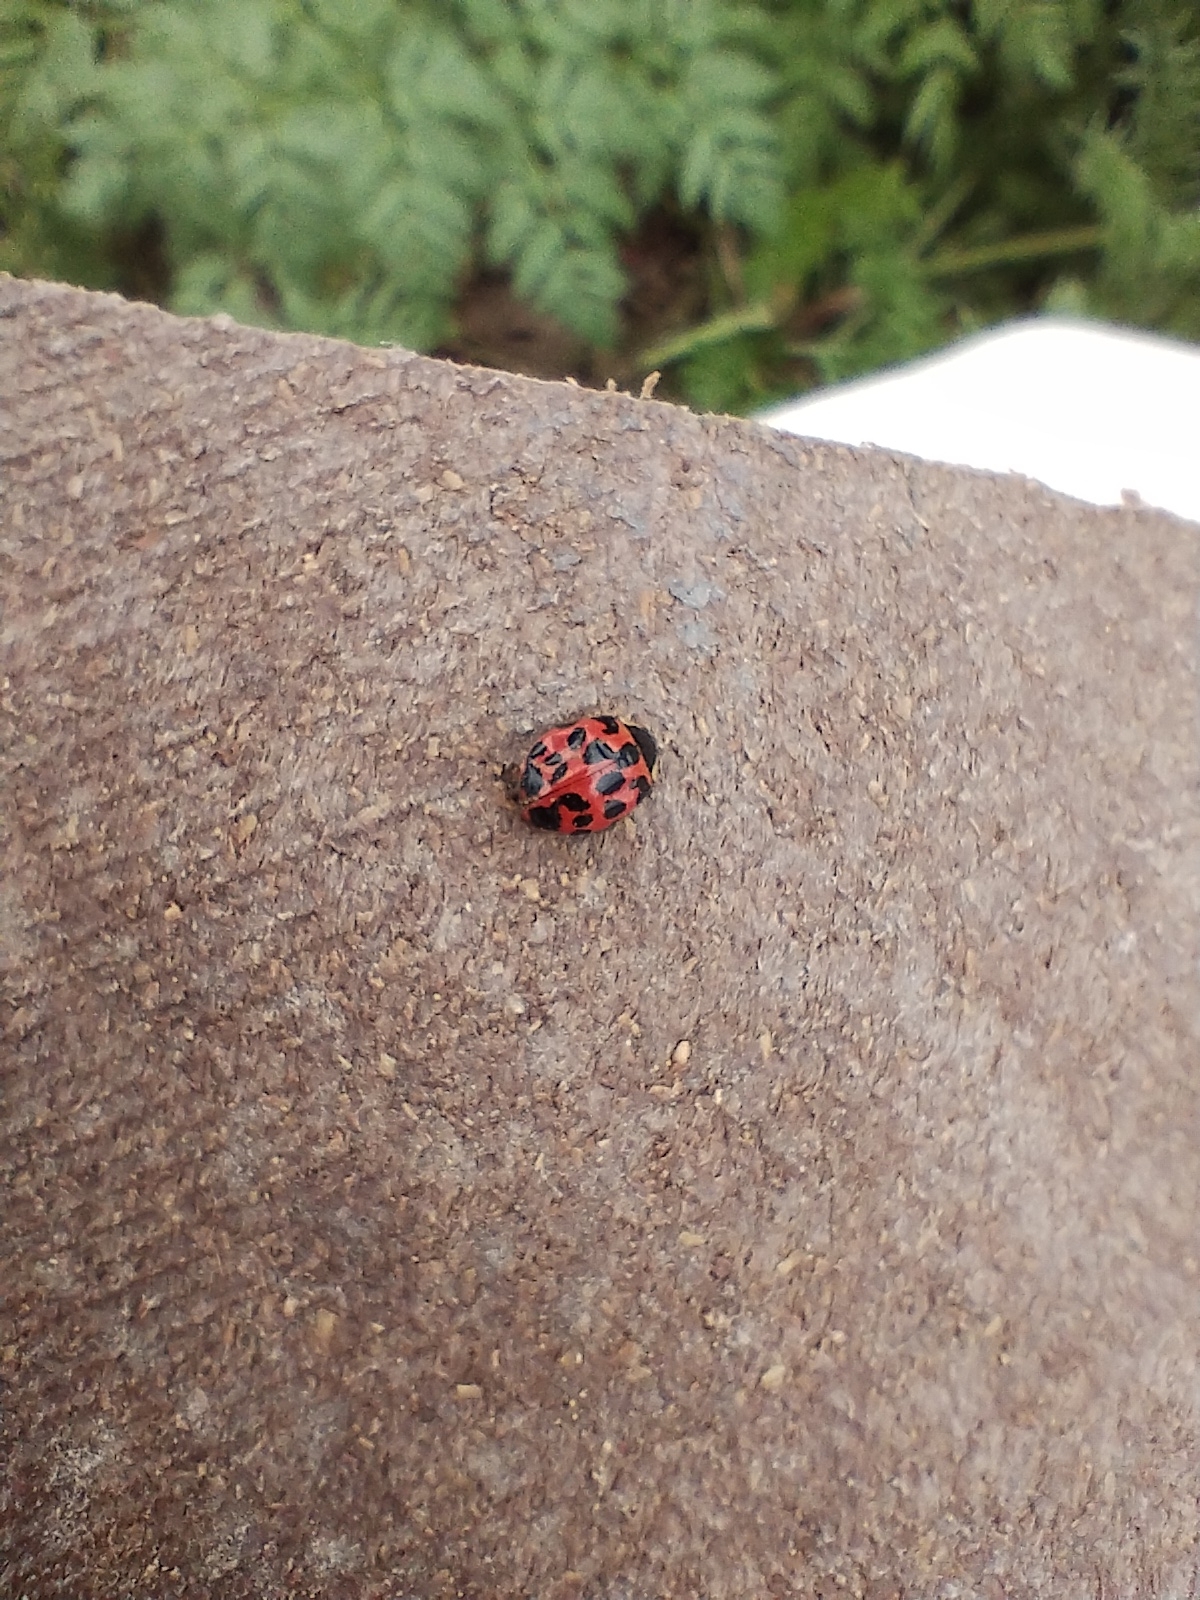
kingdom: Animalia
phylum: Arthropoda
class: Insecta
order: Coleoptera
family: Coccinellidae
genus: Harmonia
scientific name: Harmonia axyridis
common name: Harlequin ladybird
